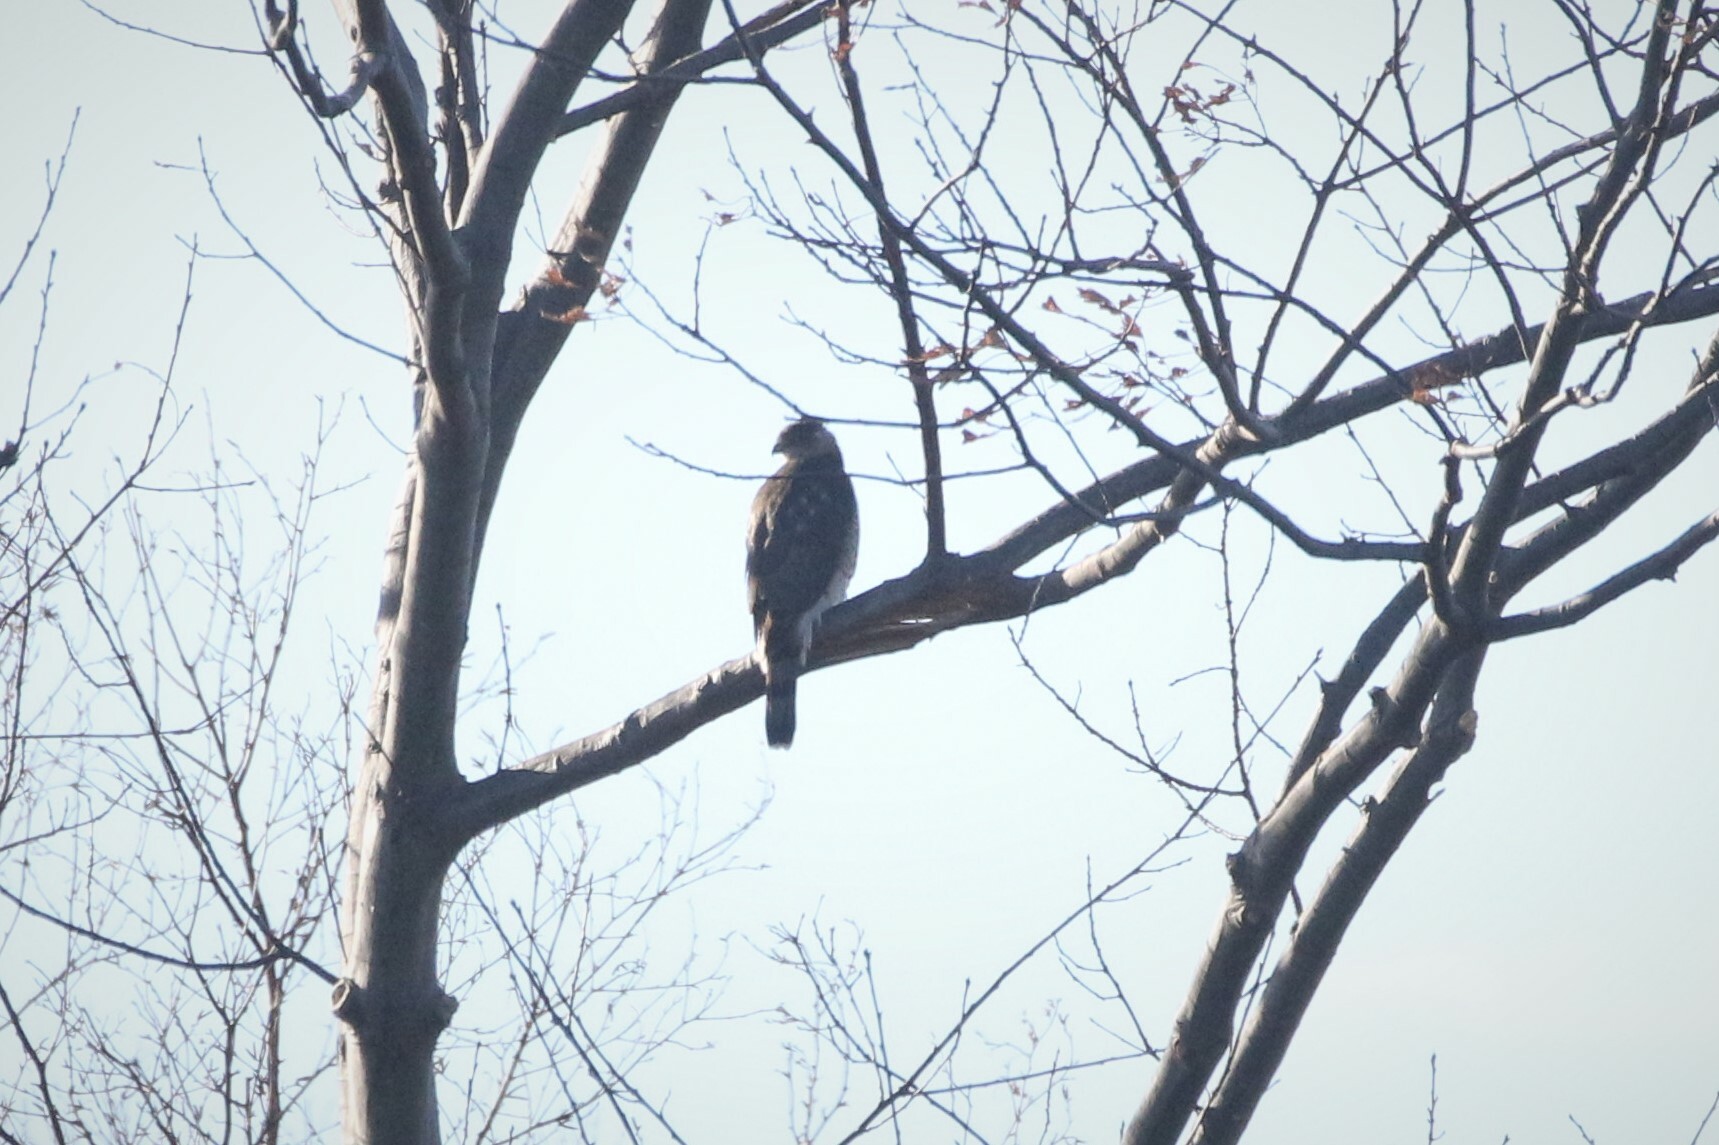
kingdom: Animalia
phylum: Chordata
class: Aves
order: Accipitriformes
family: Accipitridae
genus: Accipiter
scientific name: Accipiter cooperii
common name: Cooper's hawk
